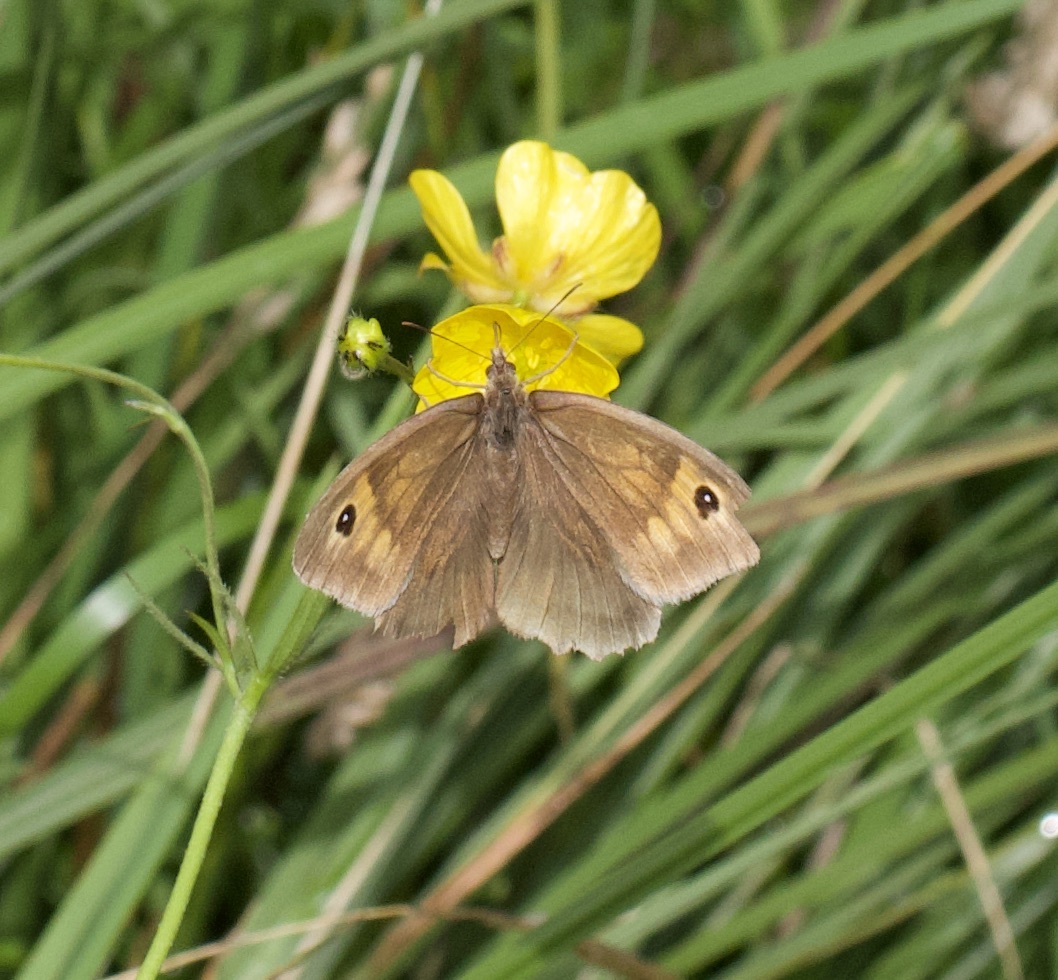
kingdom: Animalia
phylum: Arthropoda
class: Insecta
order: Lepidoptera
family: Nymphalidae
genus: Maniola
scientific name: Maniola jurtina
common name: Meadow brown
